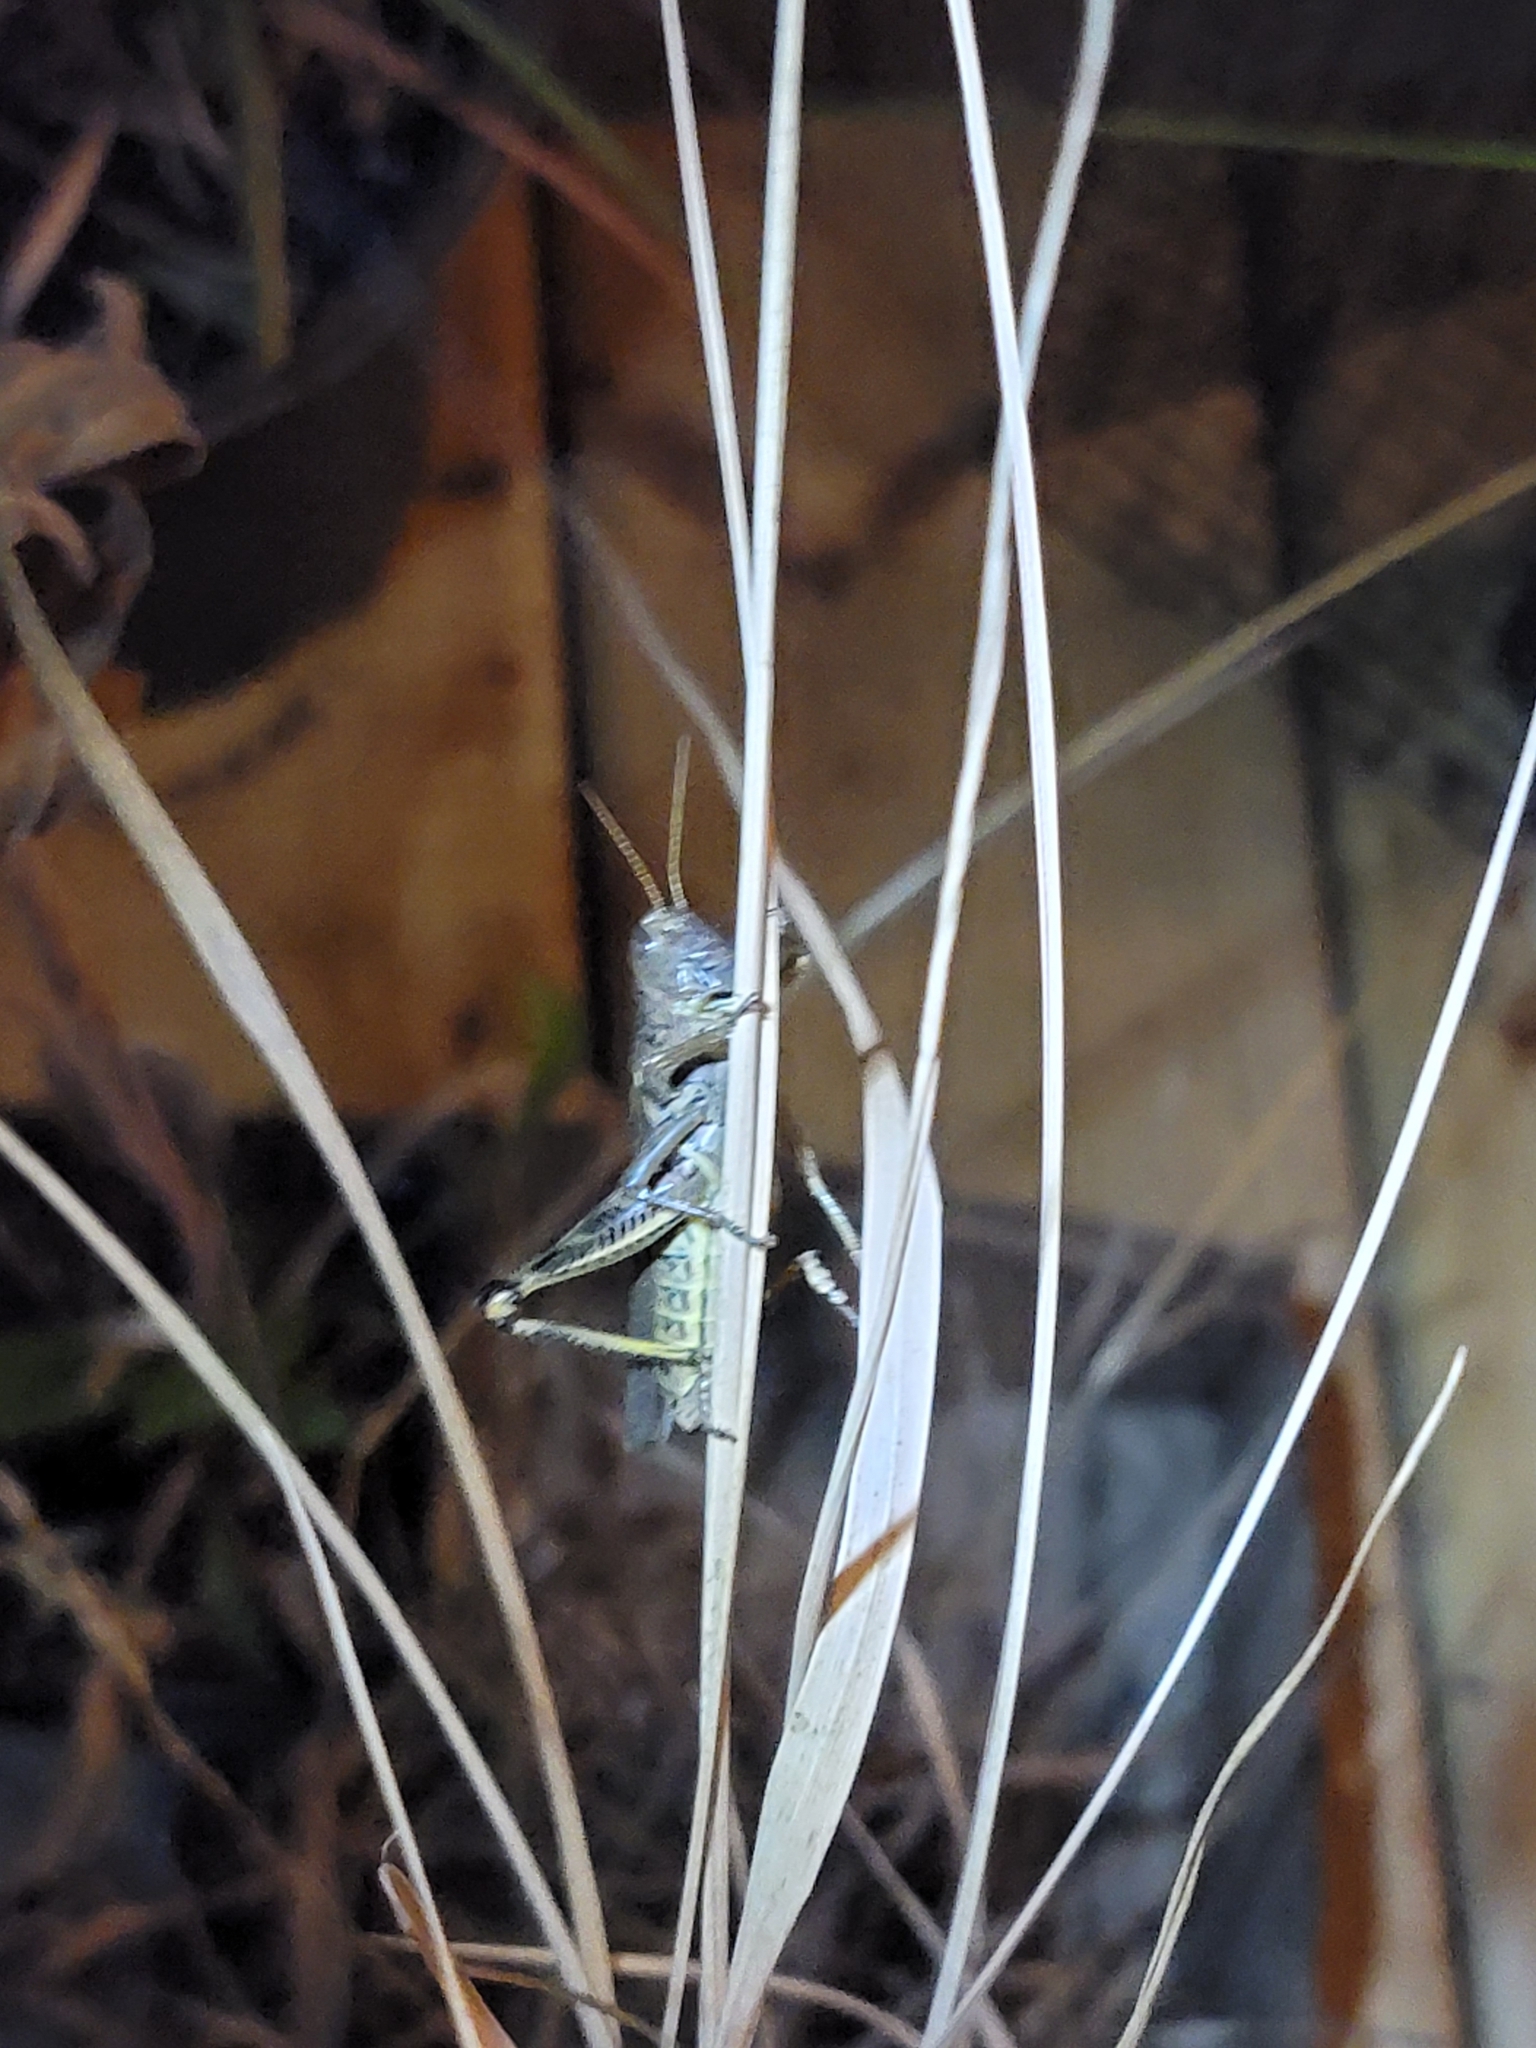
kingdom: Animalia
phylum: Arthropoda
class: Insecta
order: Orthoptera
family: Acrididae
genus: Melanoplus
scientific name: Melanoplus differentialis
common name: Differential grasshopper
